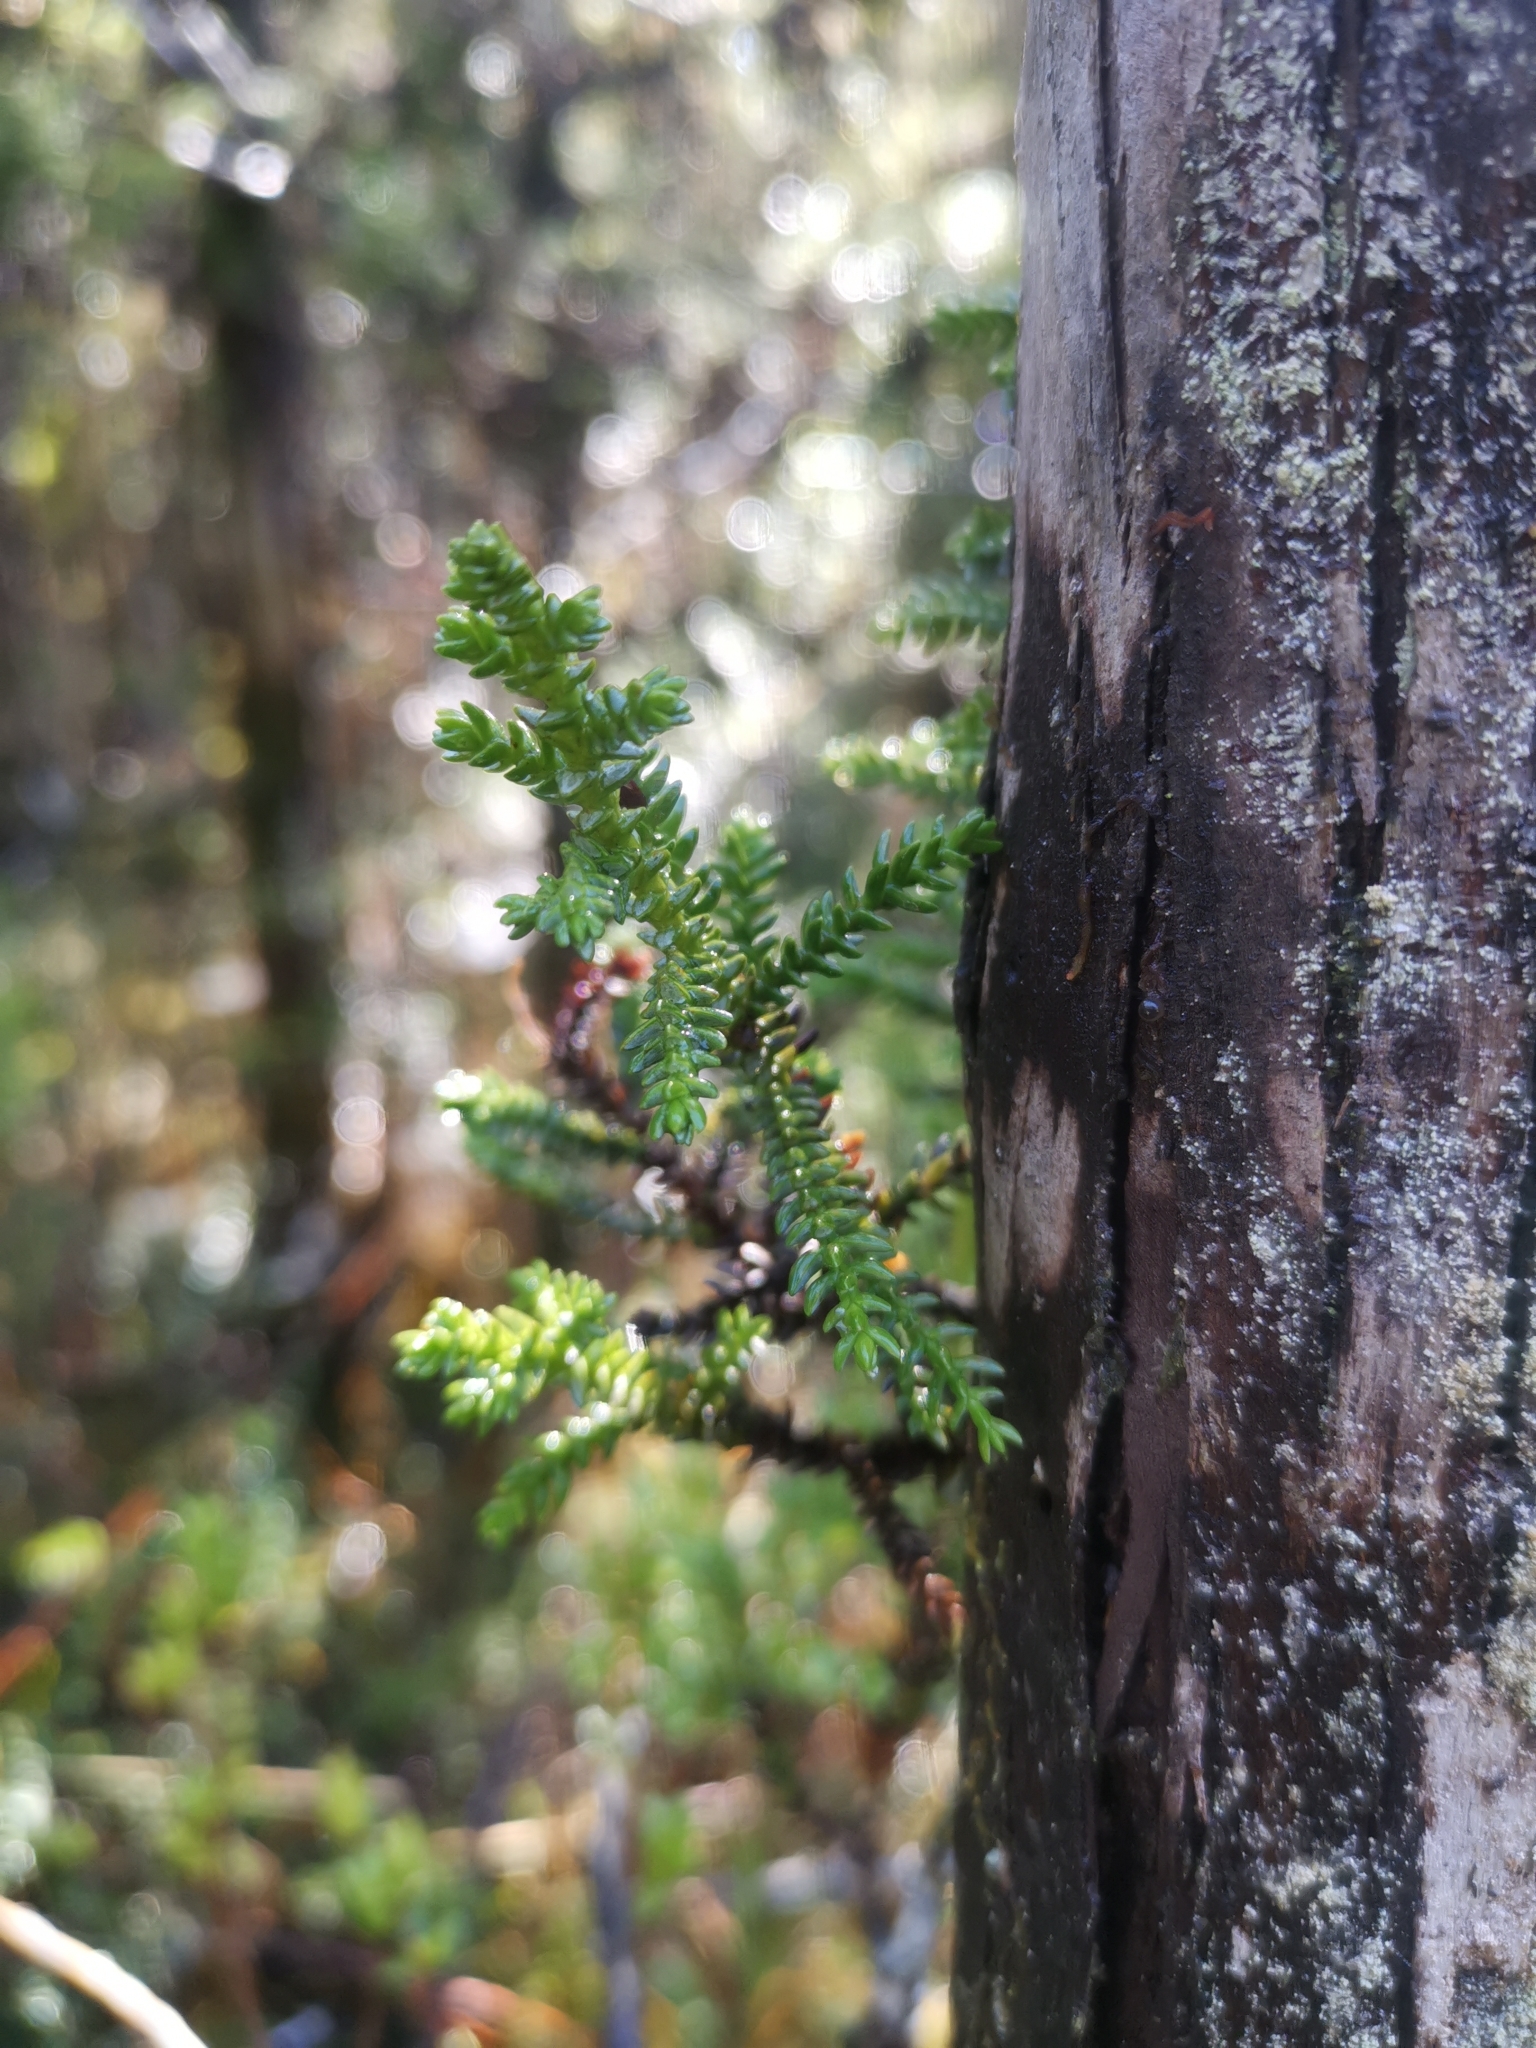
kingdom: Plantae
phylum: Tracheophyta
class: Pinopsida
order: Pinales
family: Cupressaceae
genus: Pilgerodendron
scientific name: Pilgerodendron uviferum
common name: Guaitecas cypress
